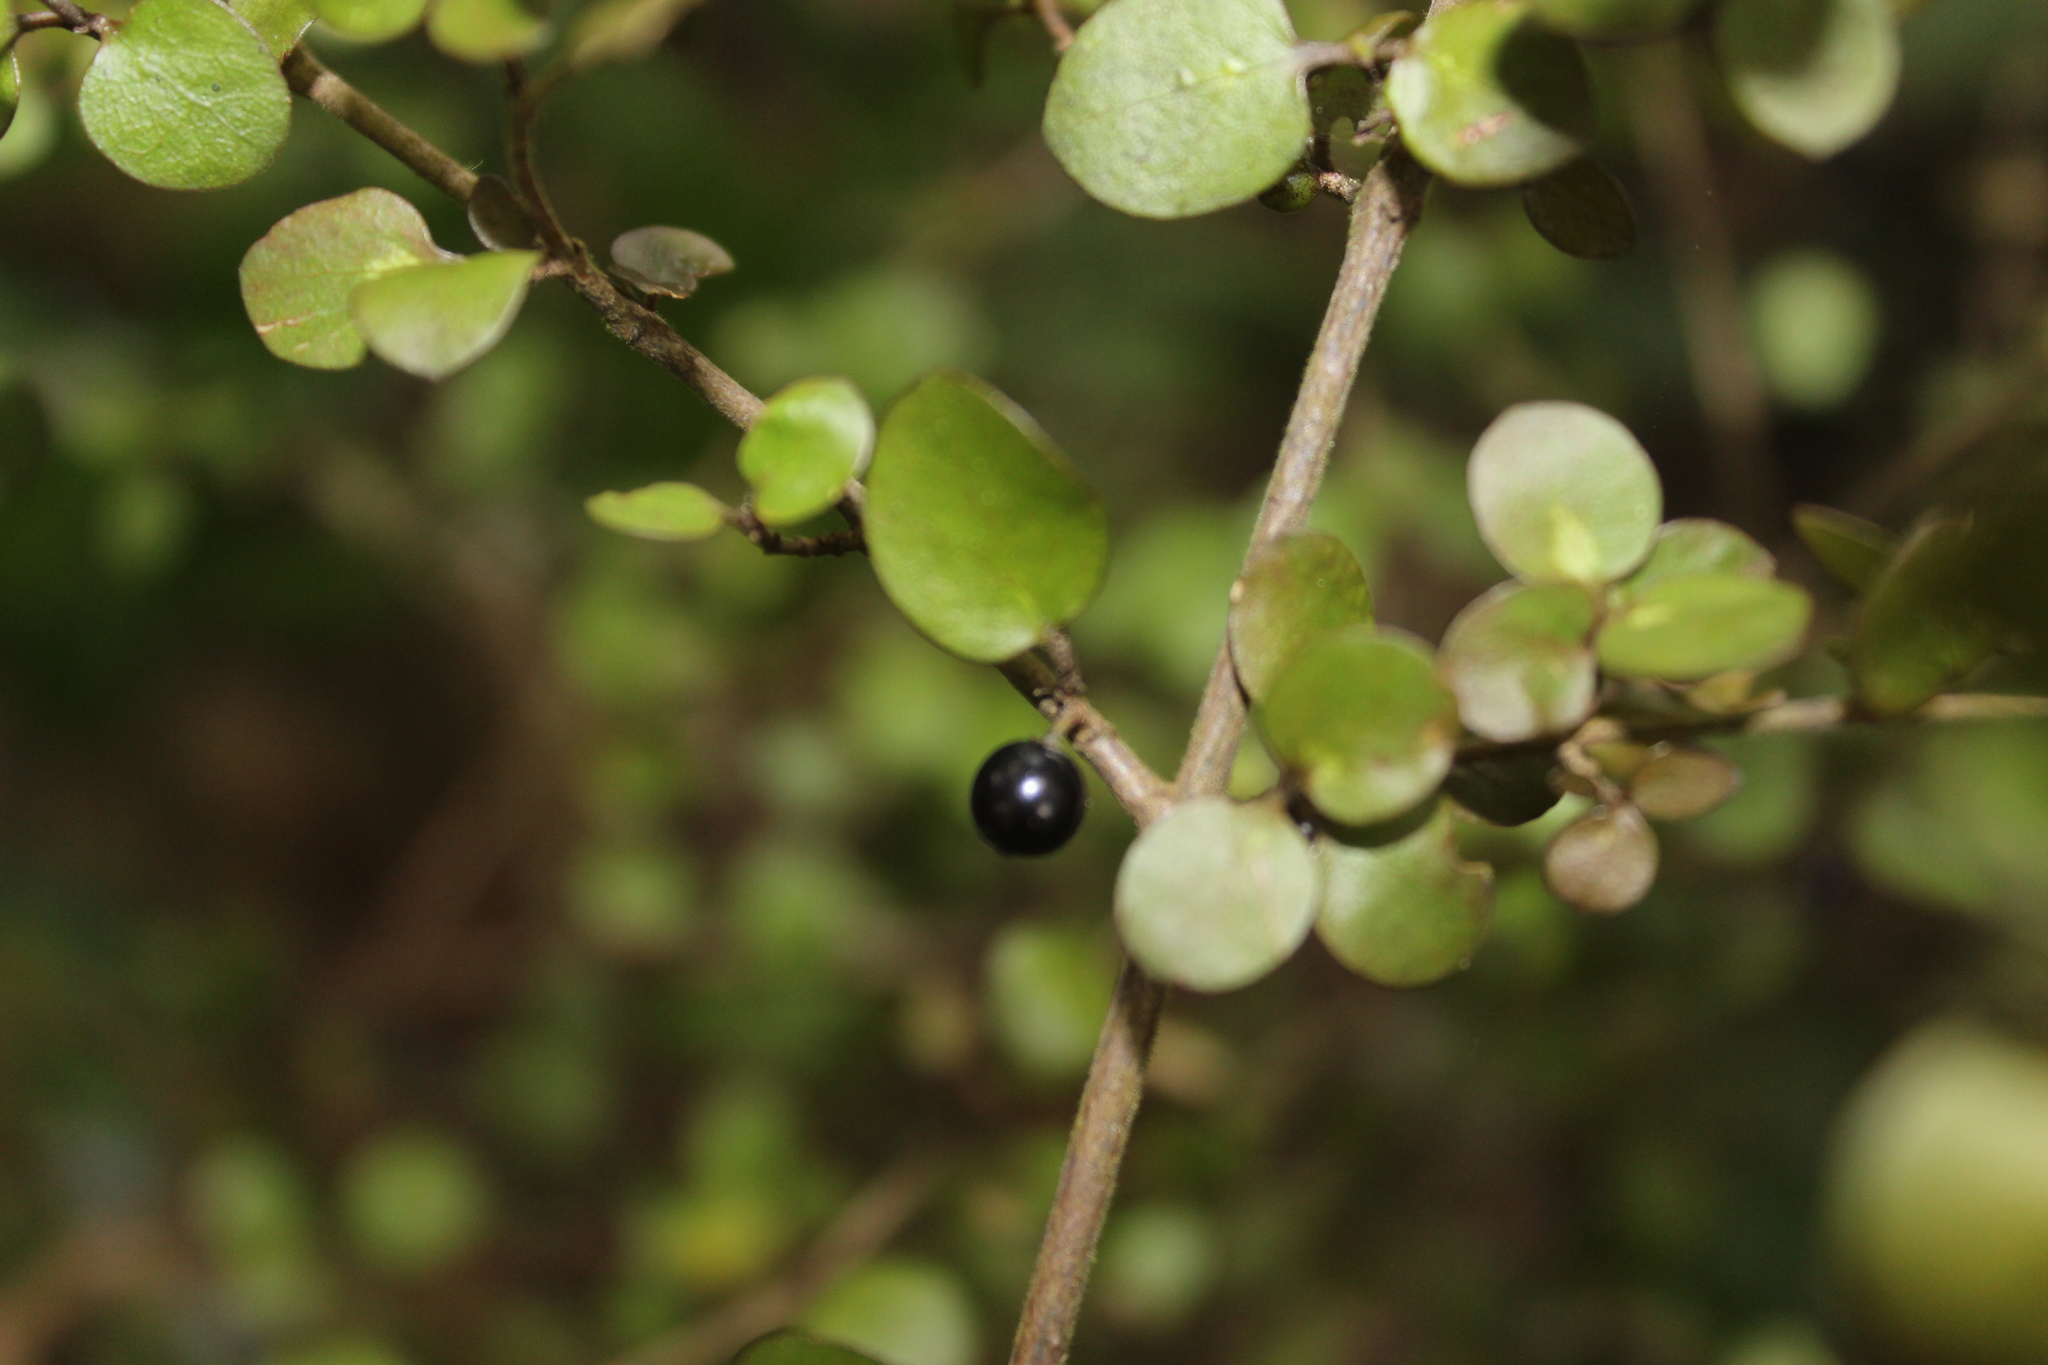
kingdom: Plantae
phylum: Tracheophyta
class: Magnoliopsida
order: Gentianales
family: Rubiaceae
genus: Coprosma
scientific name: Coprosma rhamnoides
